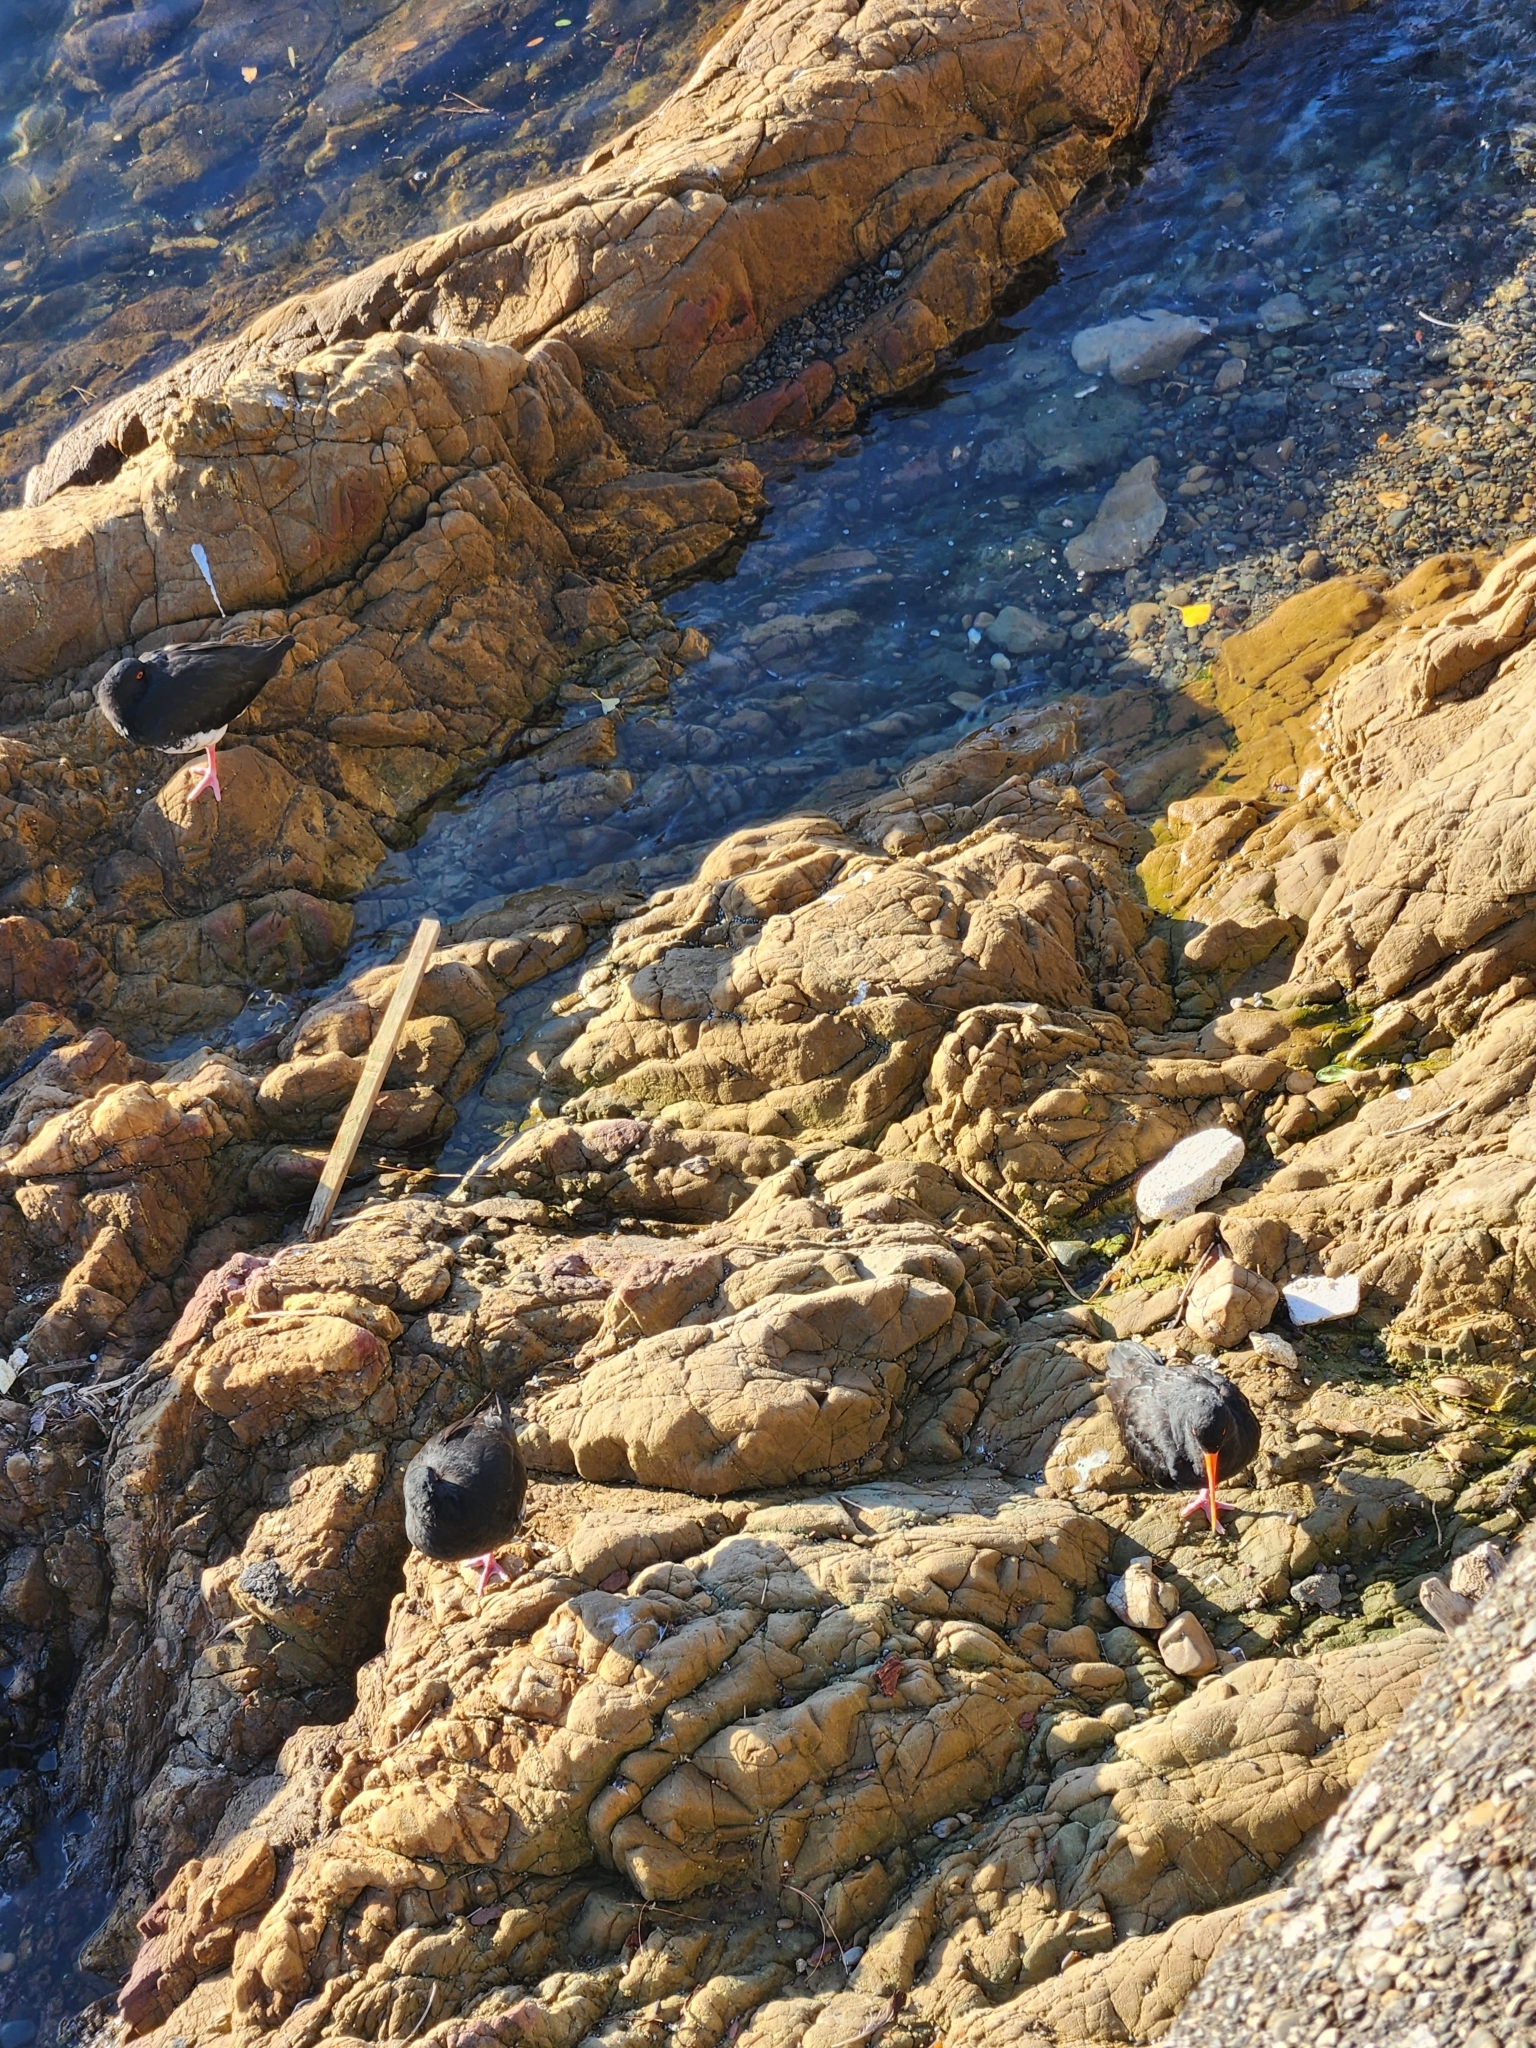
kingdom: Animalia
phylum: Chordata
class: Aves
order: Charadriiformes
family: Haematopodidae
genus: Haematopus
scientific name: Haematopus unicolor
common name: Variable oystercatcher
